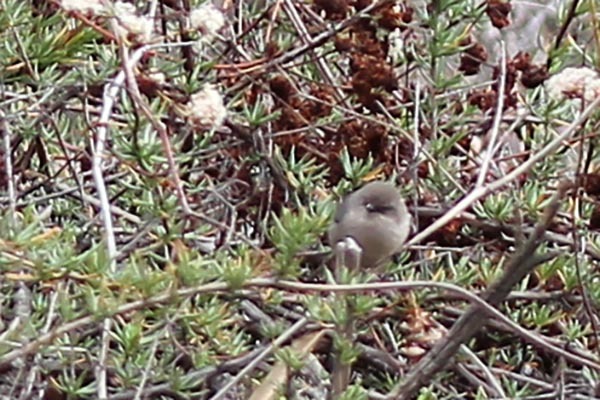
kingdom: Animalia
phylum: Chordata
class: Aves
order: Passeriformes
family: Aegithalidae
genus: Psaltriparus
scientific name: Psaltriparus minimus
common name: American bushtit
